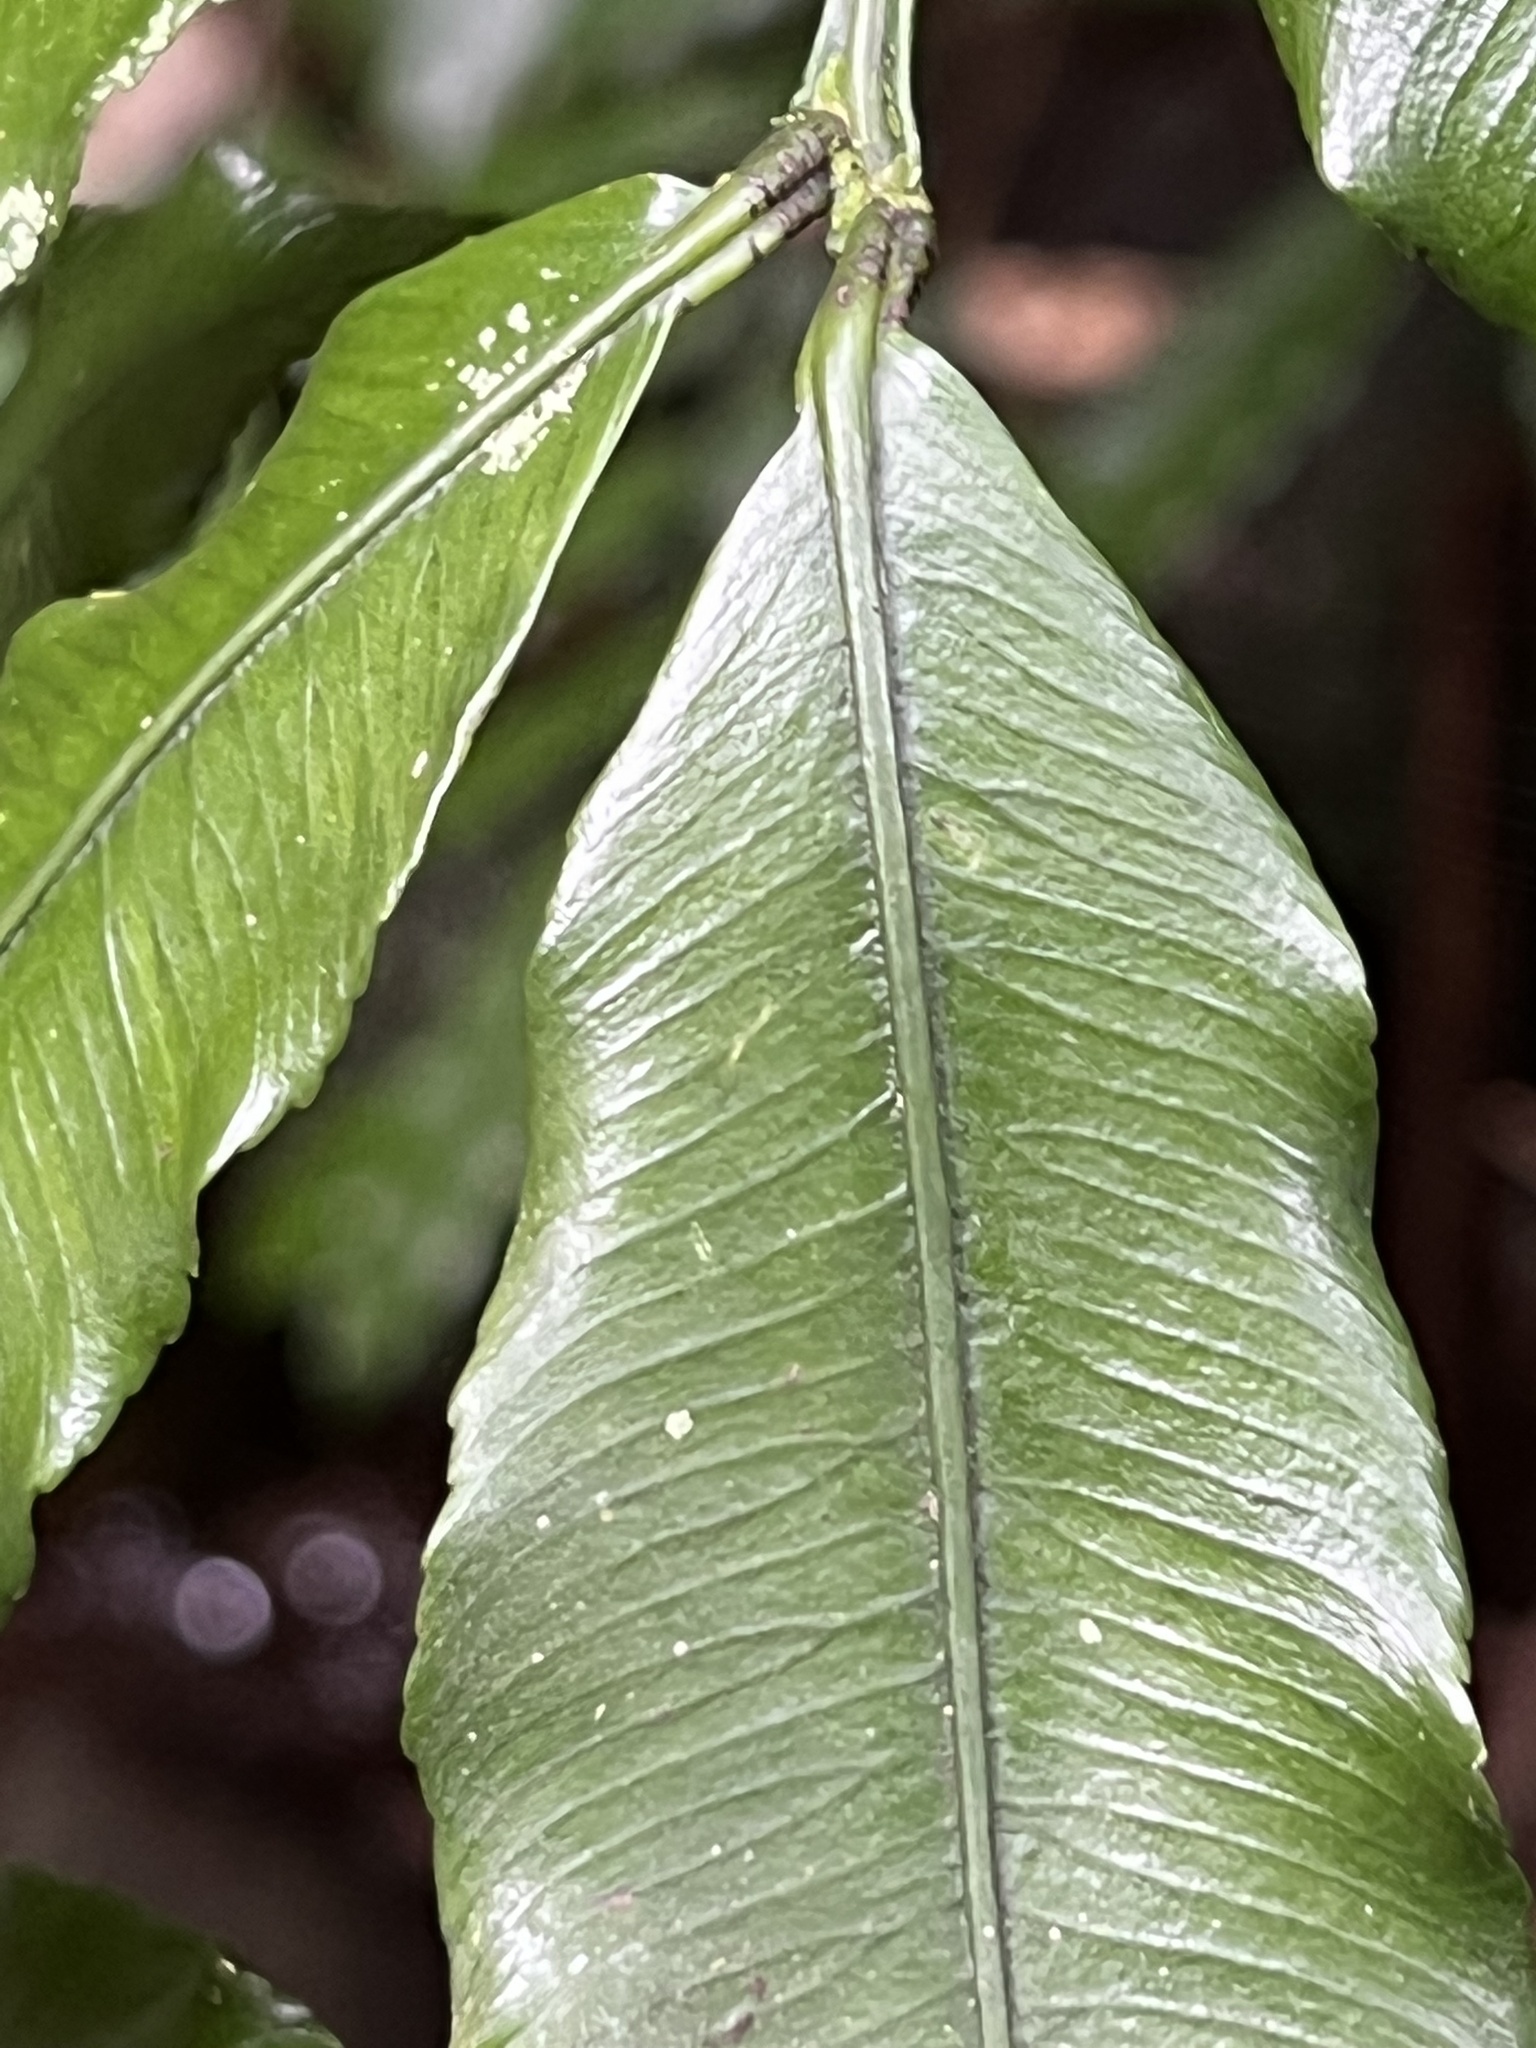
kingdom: Plantae
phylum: Tracheophyta
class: Polypodiopsida
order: Marattiales
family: Marattiaceae
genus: Ptisana
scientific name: Ptisana salicina
